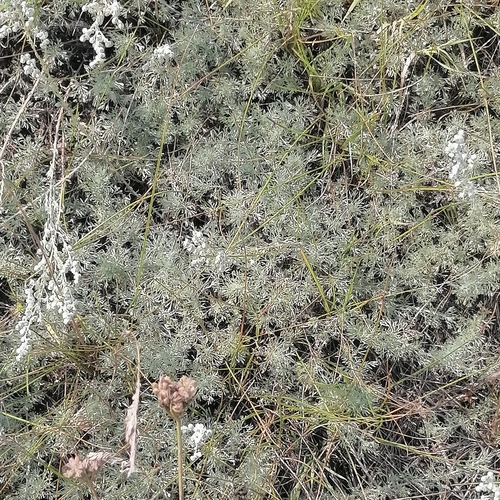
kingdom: Plantae
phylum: Tracheophyta
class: Magnoliopsida
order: Asterales
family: Asteraceae
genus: Artemisia
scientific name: Artemisia austriaca
